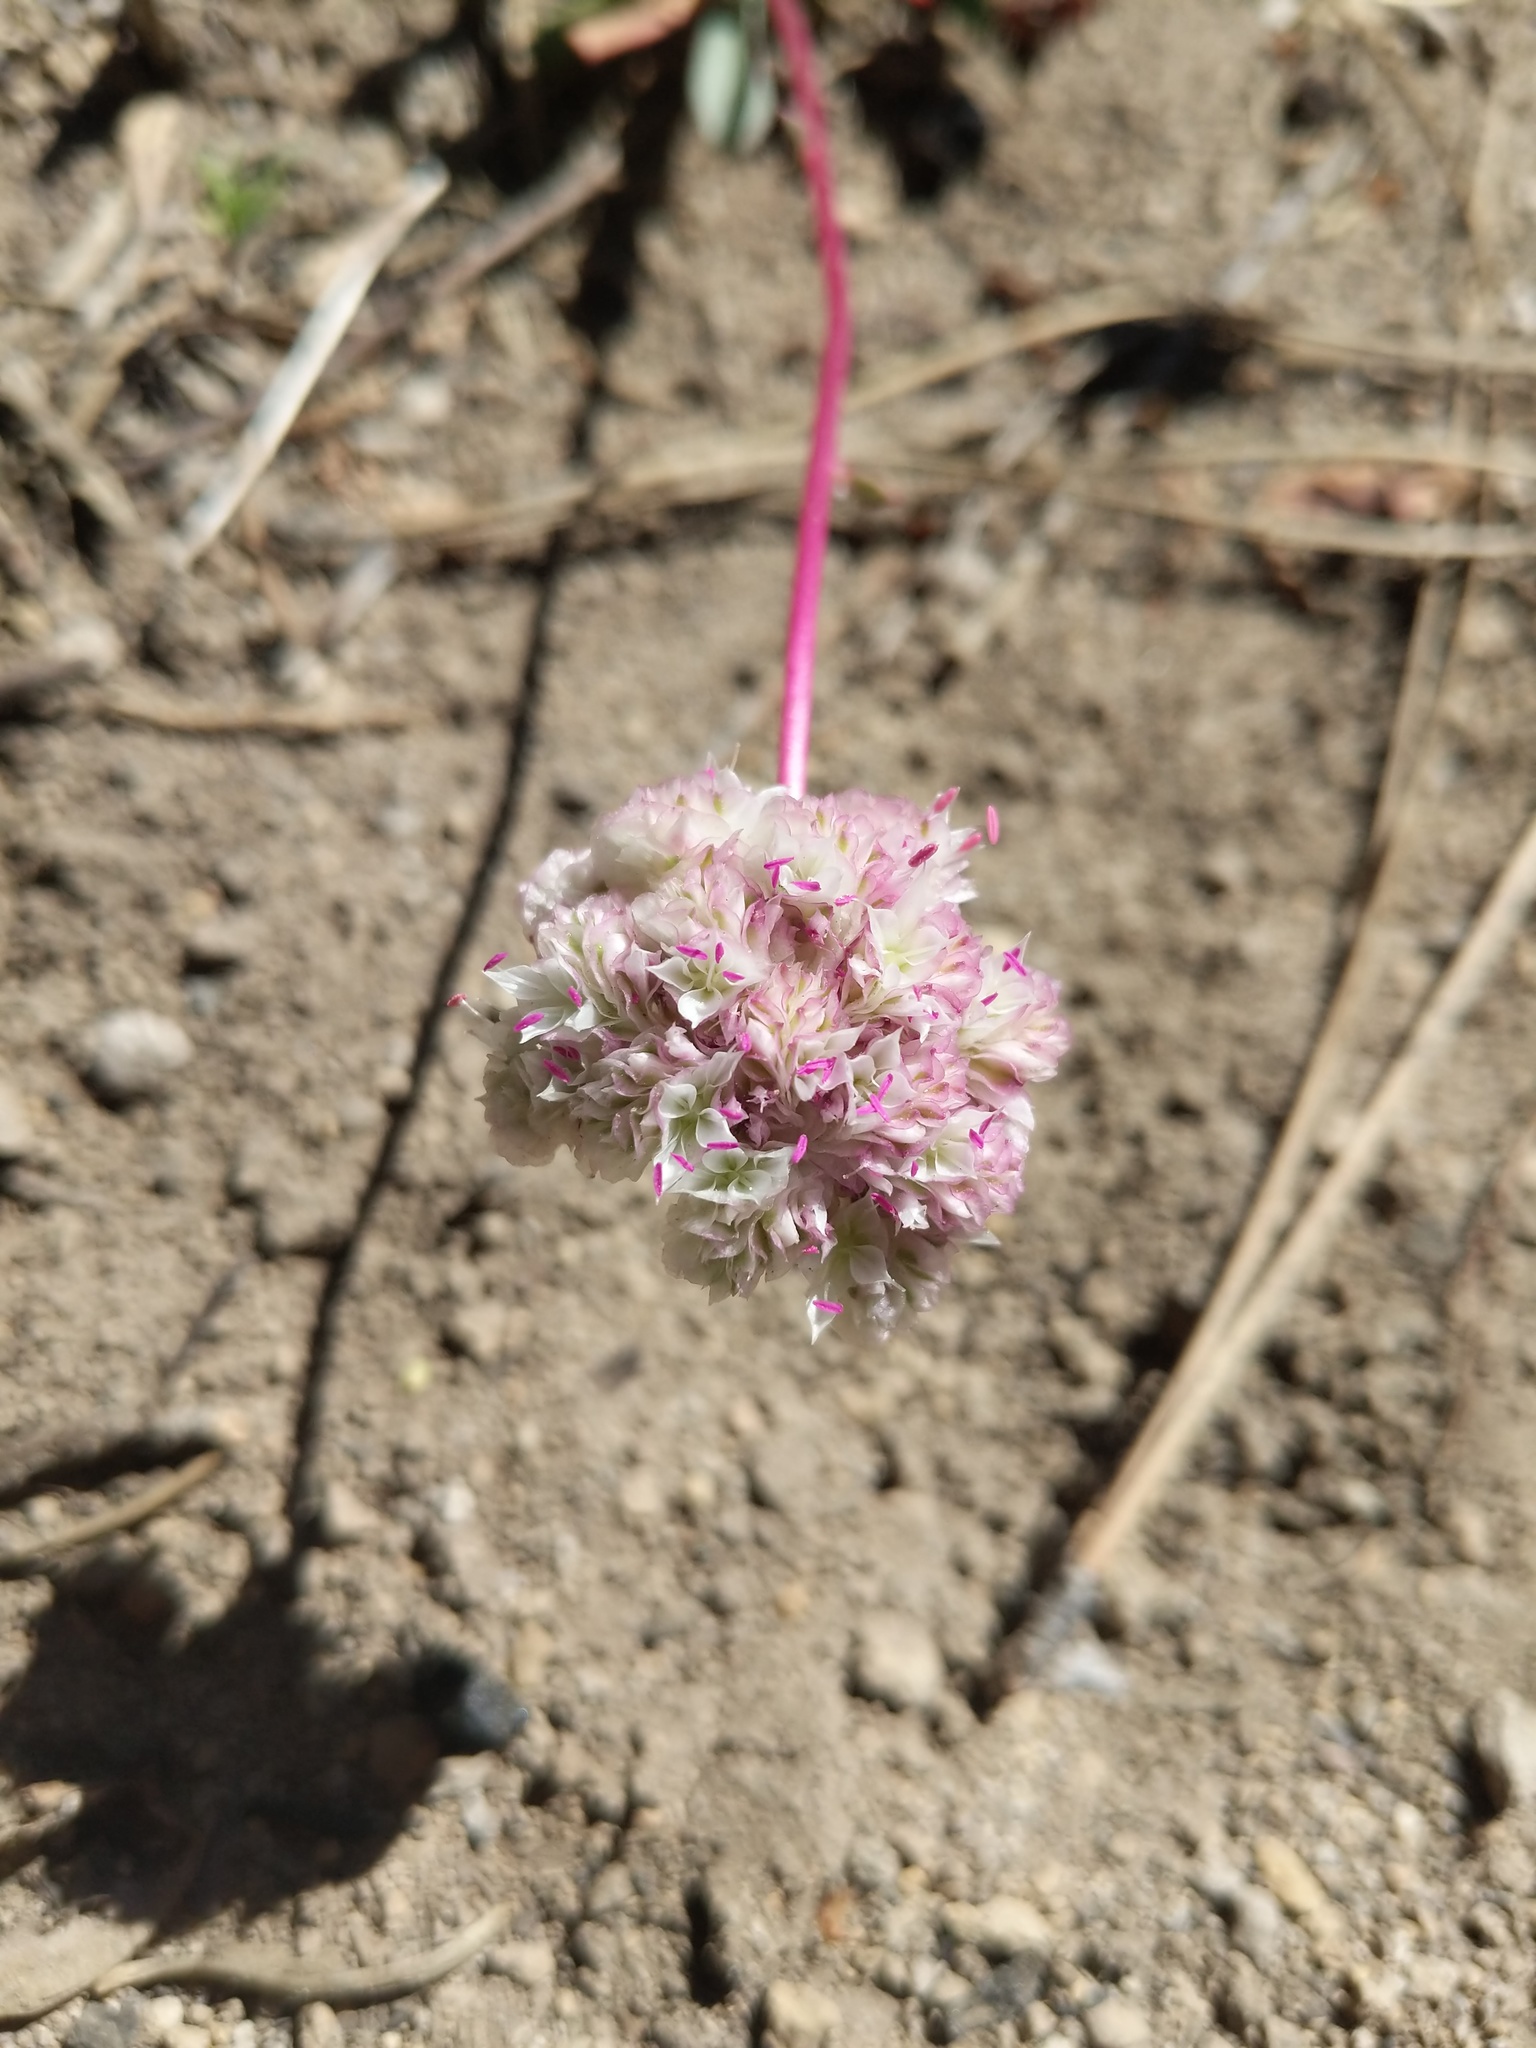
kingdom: Plantae
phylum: Tracheophyta
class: Magnoliopsida
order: Caryophyllales
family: Montiaceae
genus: Calyptridium
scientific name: Calyptridium monospermum
